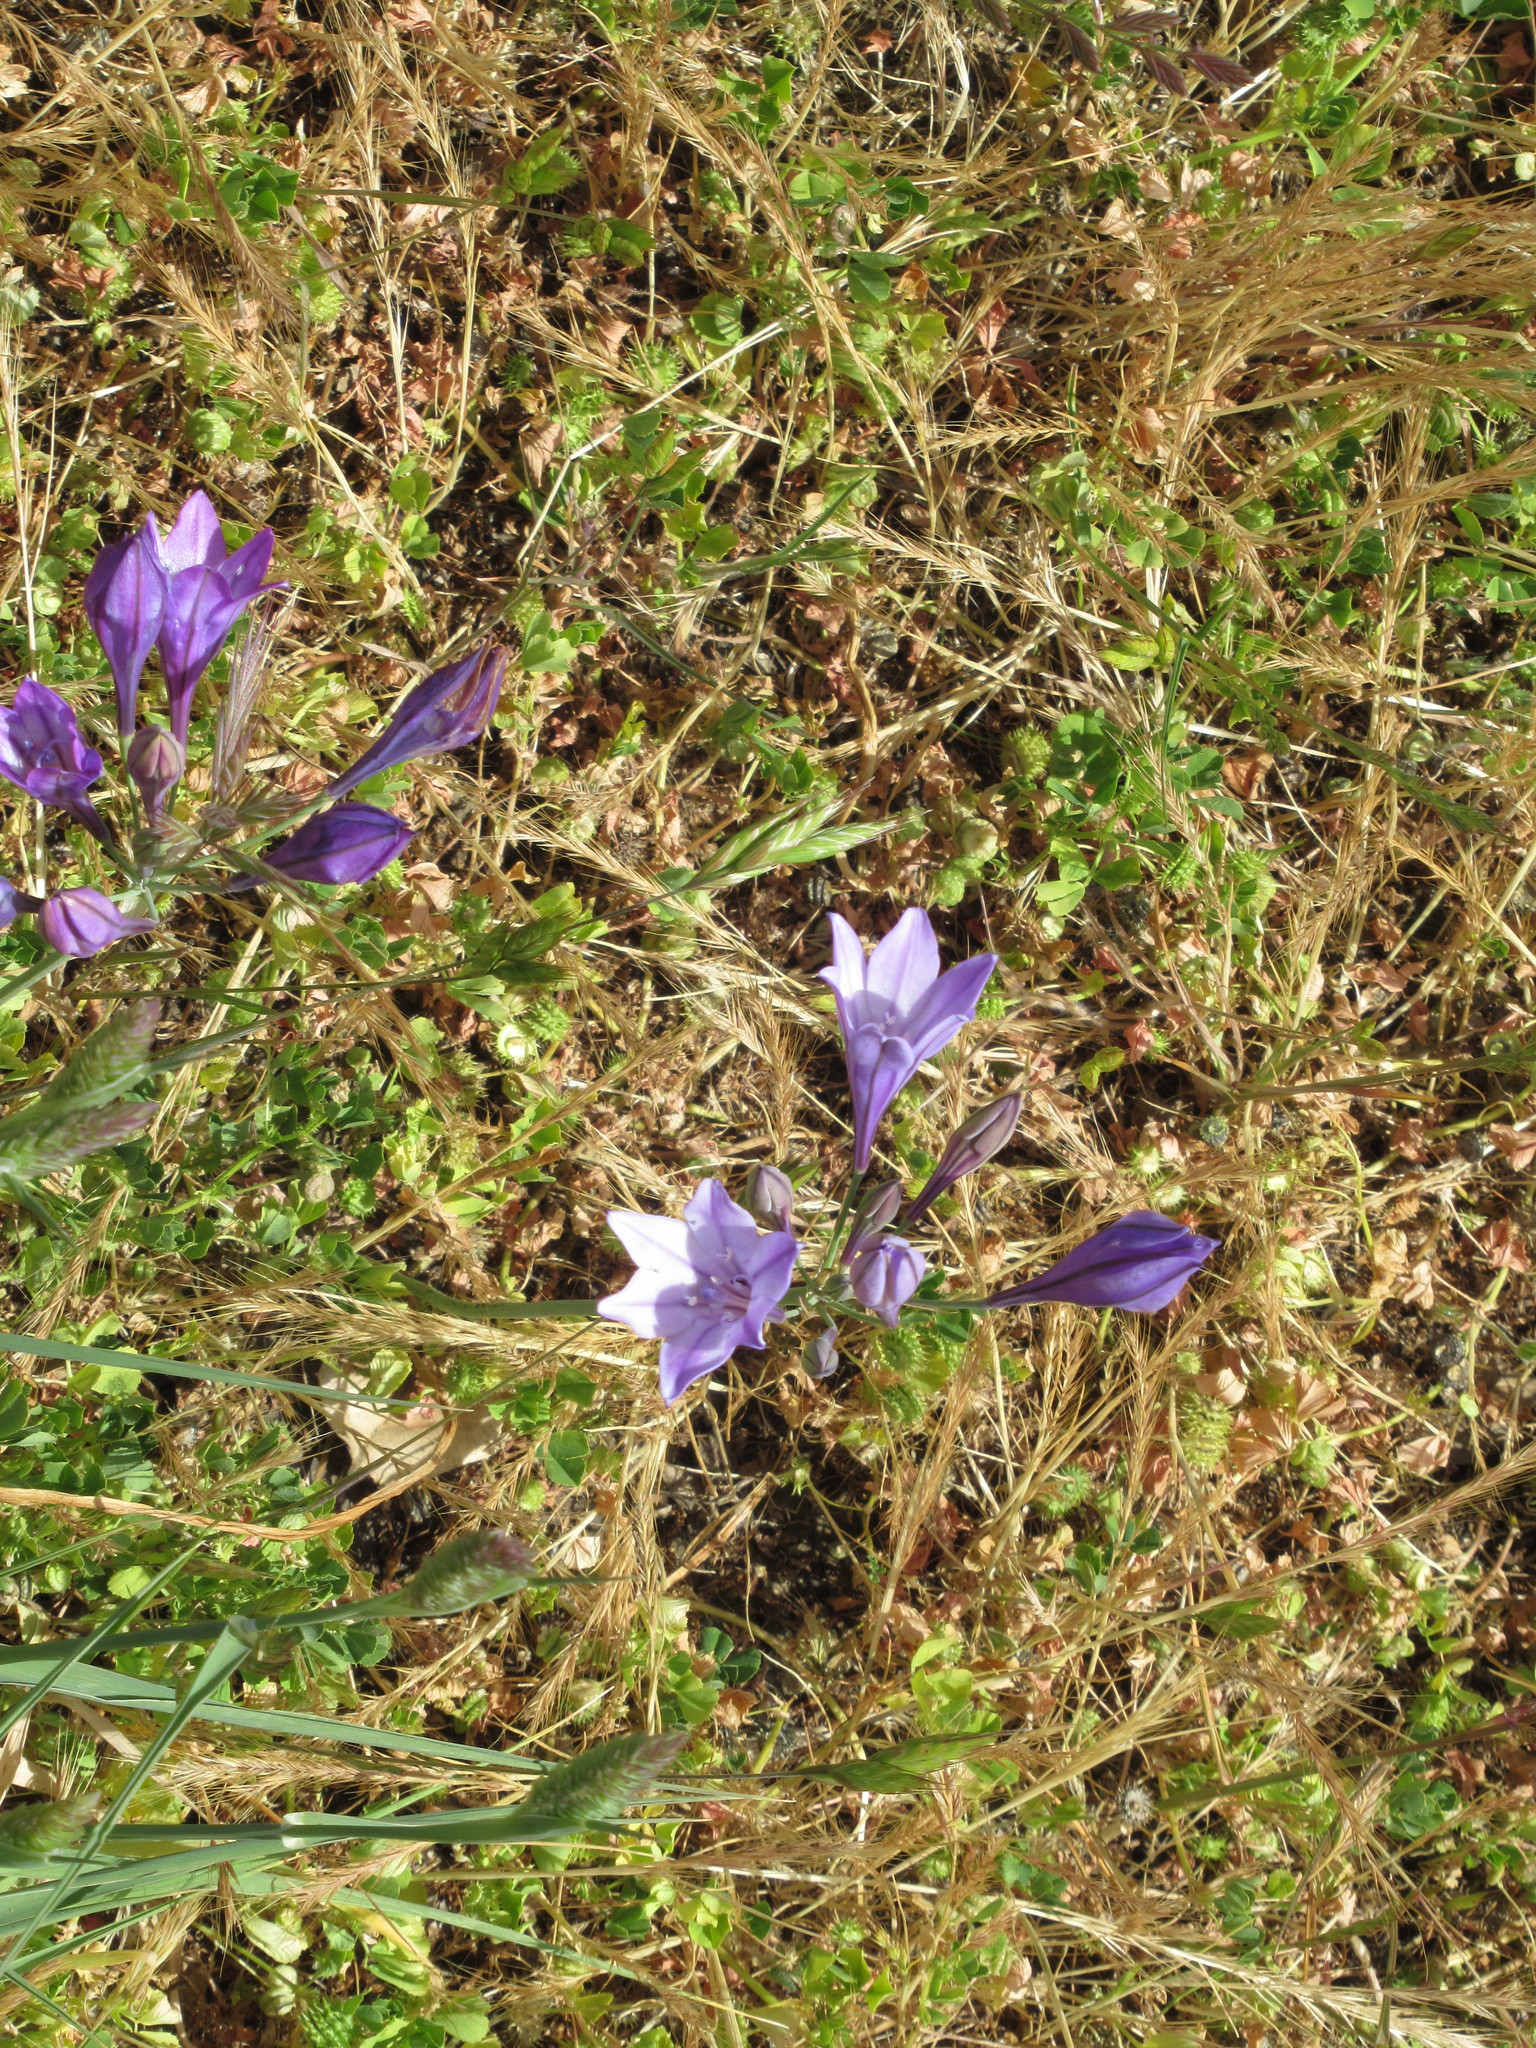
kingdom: Plantae
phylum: Tracheophyta
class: Liliopsida
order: Asparagales
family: Asparagaceae
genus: Triteleia
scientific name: Triteleia laxa
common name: Triplet-lily
